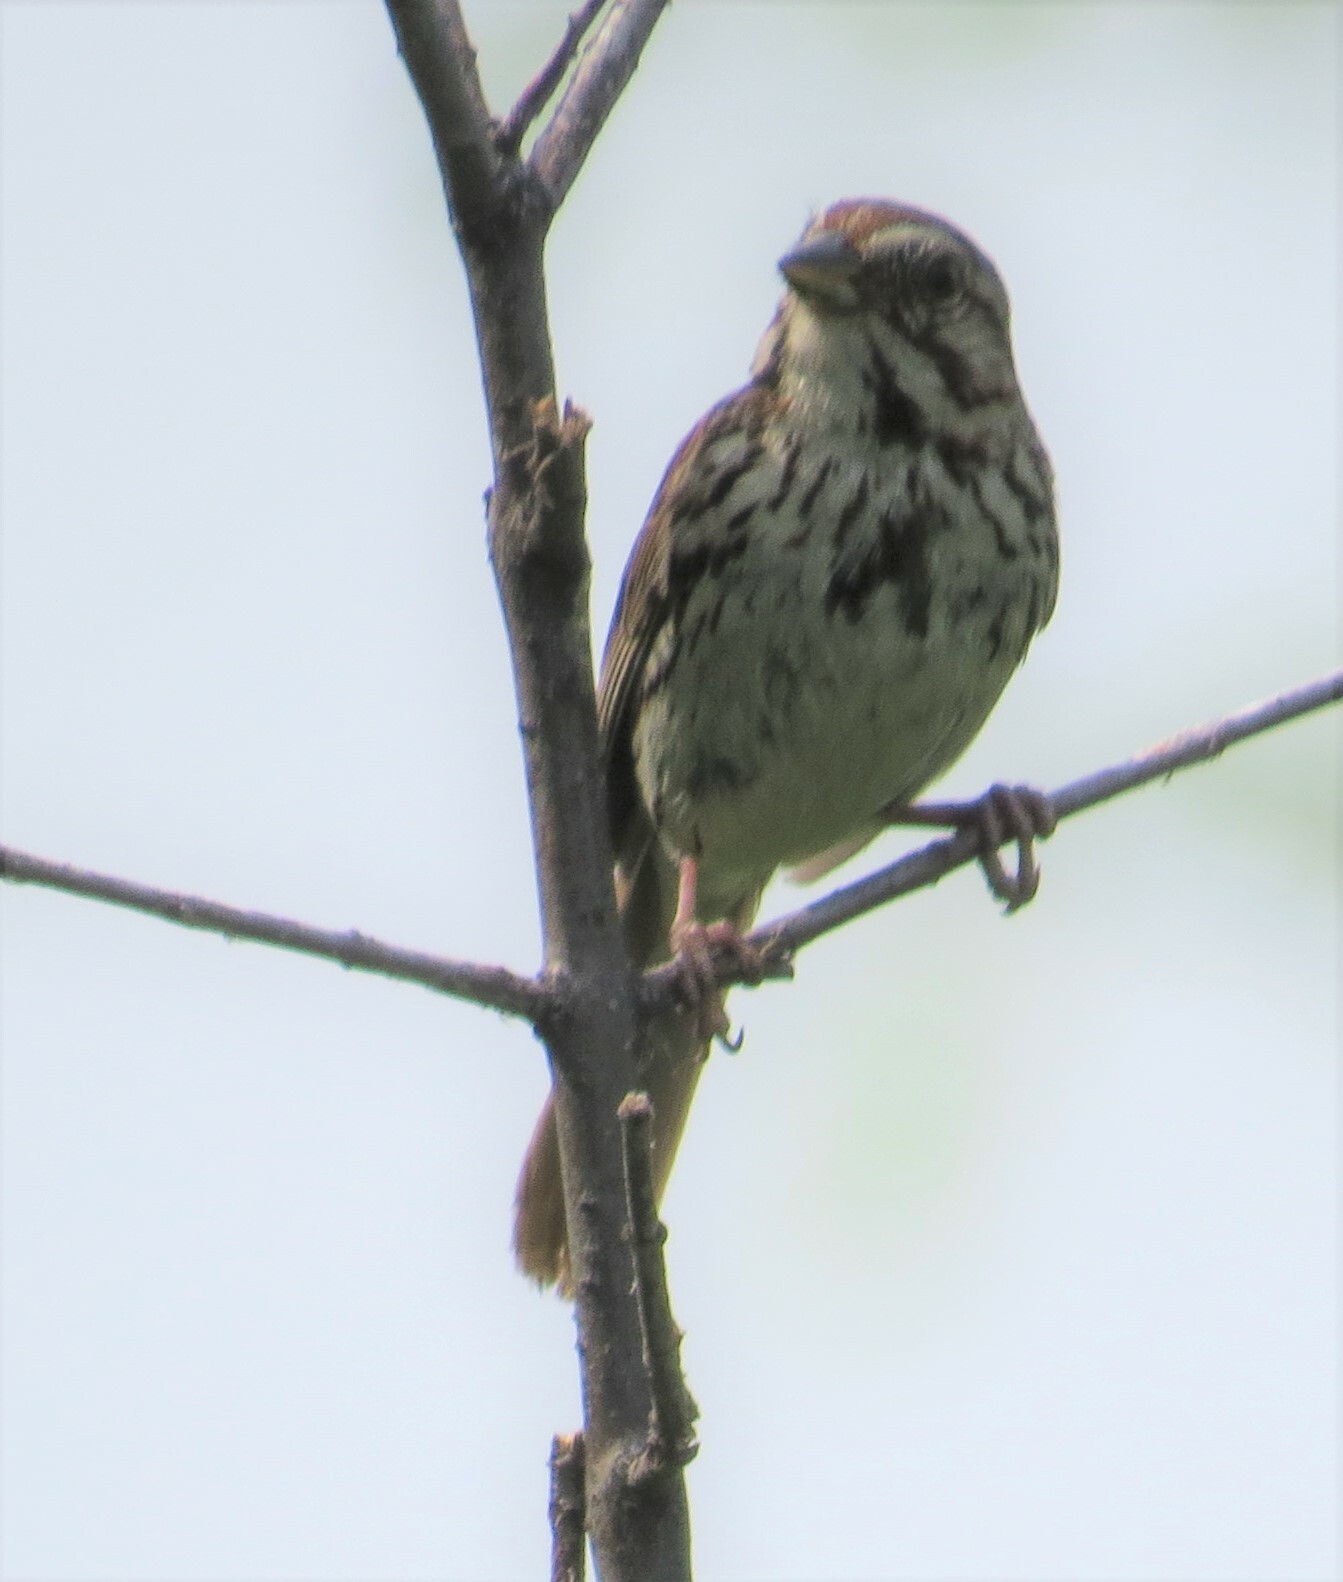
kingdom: Animalia
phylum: Chordata
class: Aves
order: Passeriformes
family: Passerellidae
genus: Melospiza
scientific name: Melospiza melodia
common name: Song sparrow
